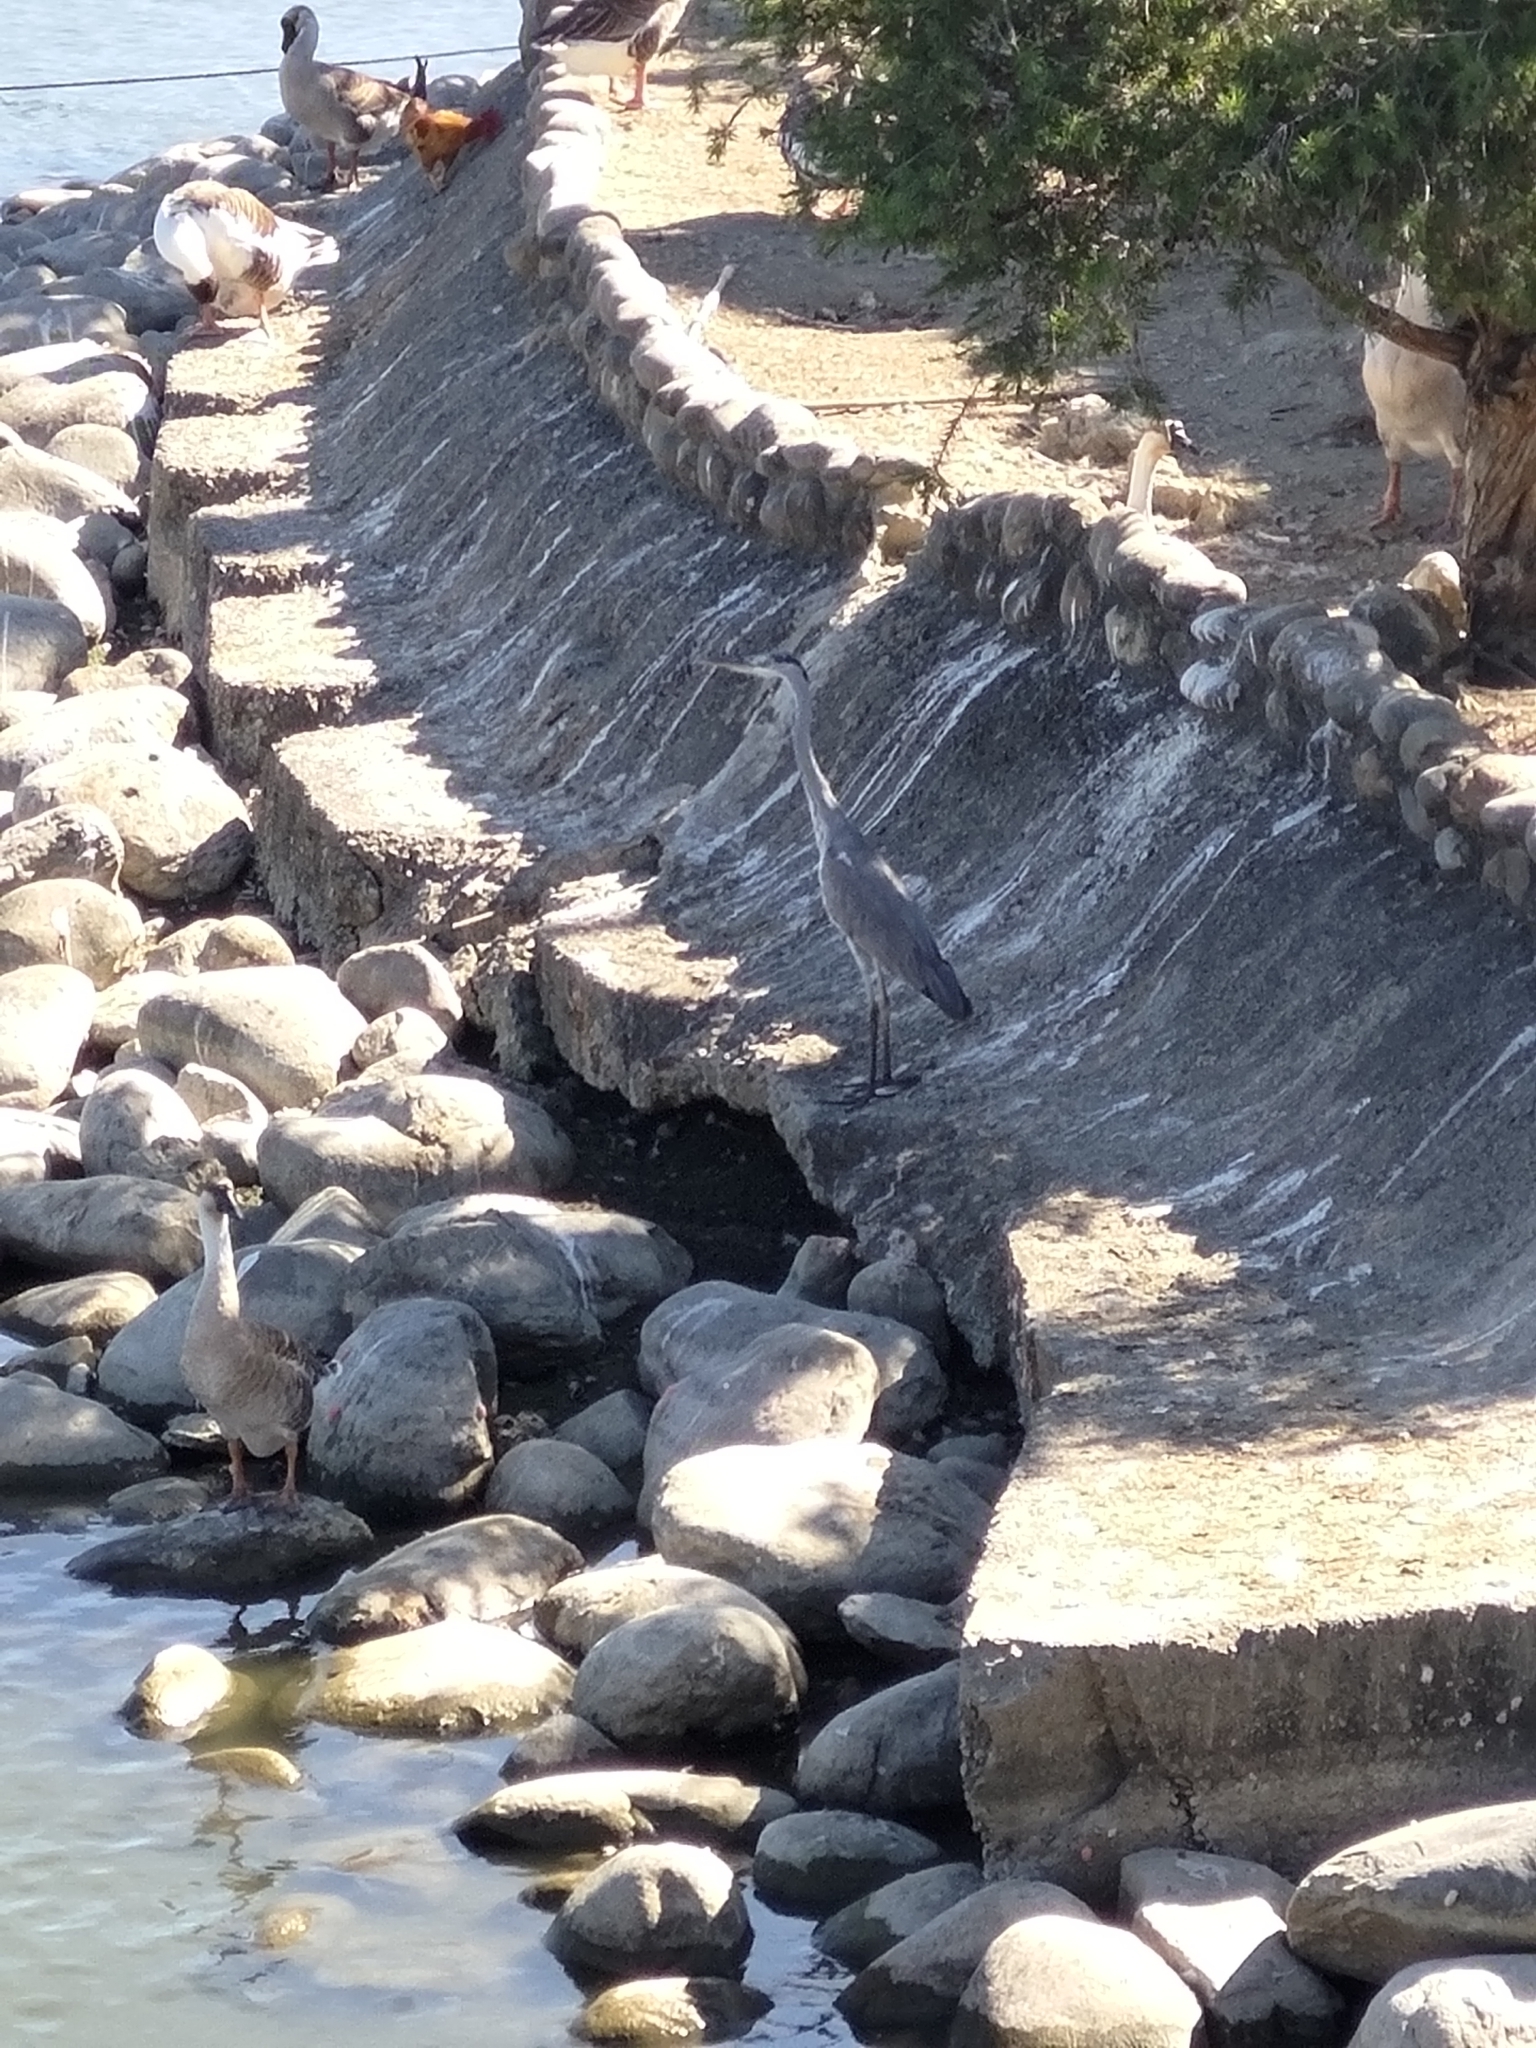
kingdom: Animalia
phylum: Chordata
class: Aves
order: Pelecaniformes
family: Ardeidae
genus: Ardea
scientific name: Ardea cinerea
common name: Grey heron
